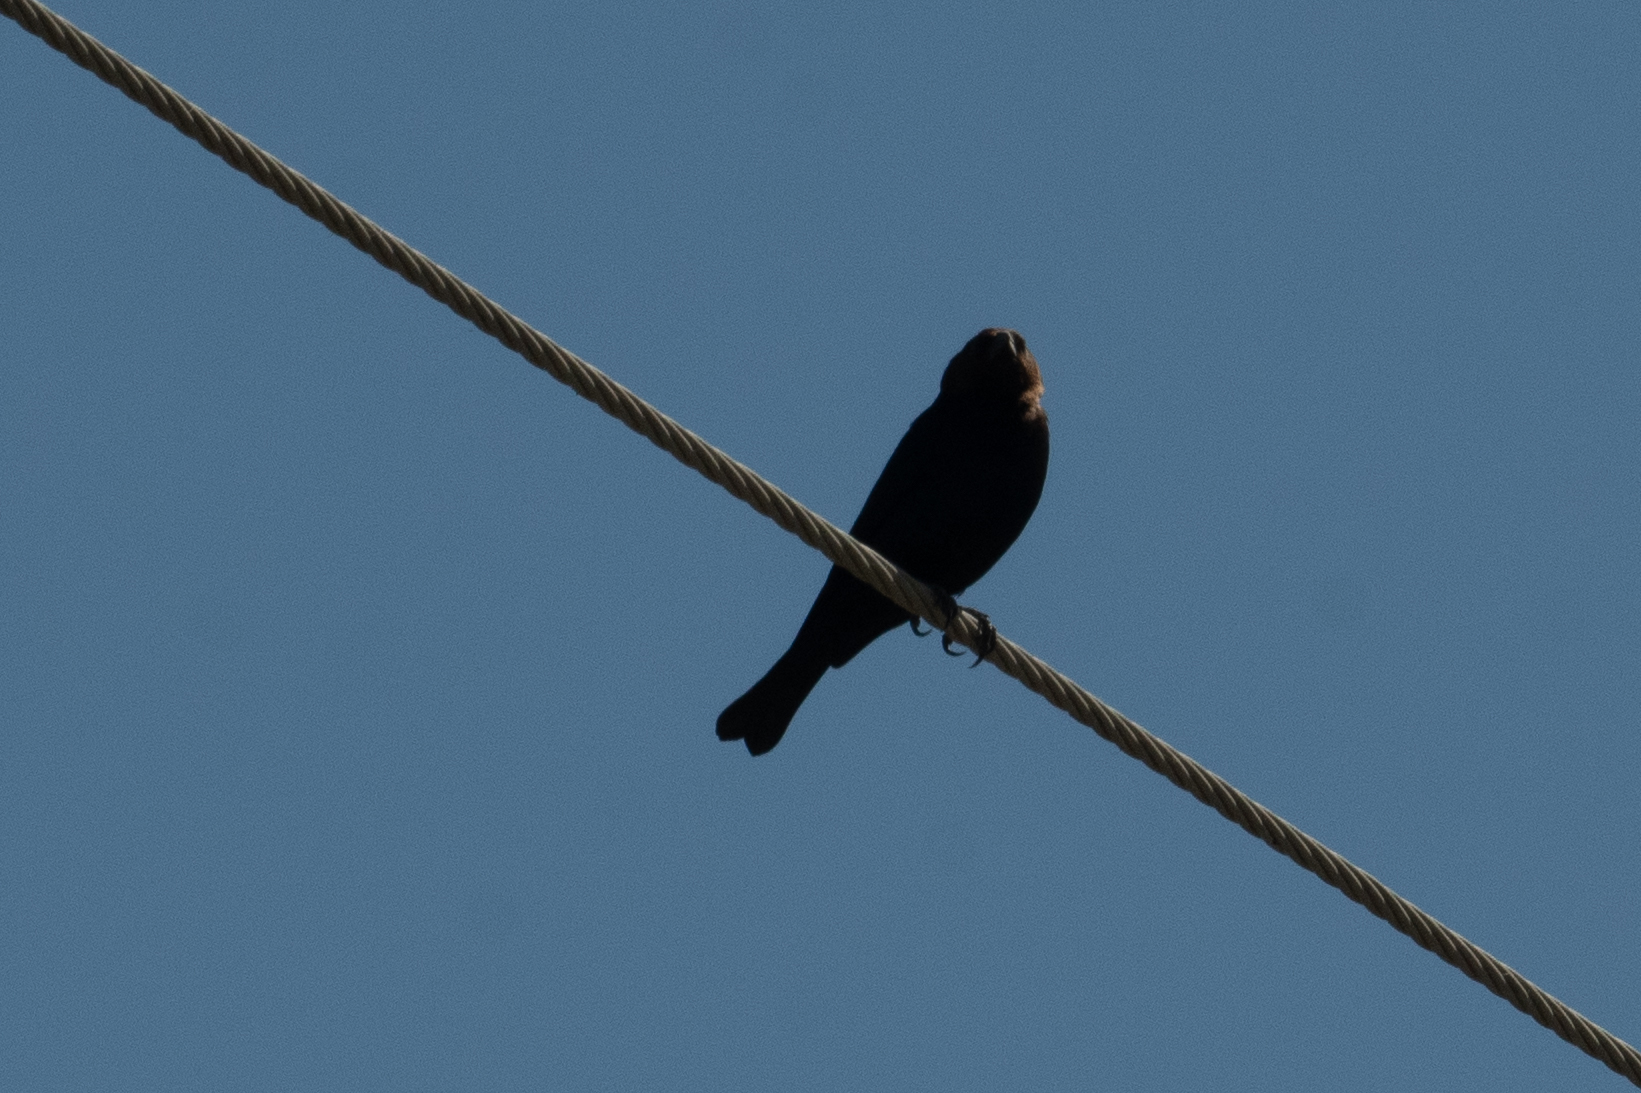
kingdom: Animalia
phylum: Chordata
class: Aves
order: Passeriformes
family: Icteridae
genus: Molothrus
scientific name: Molothrus ater
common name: Brown-headed cowbird
